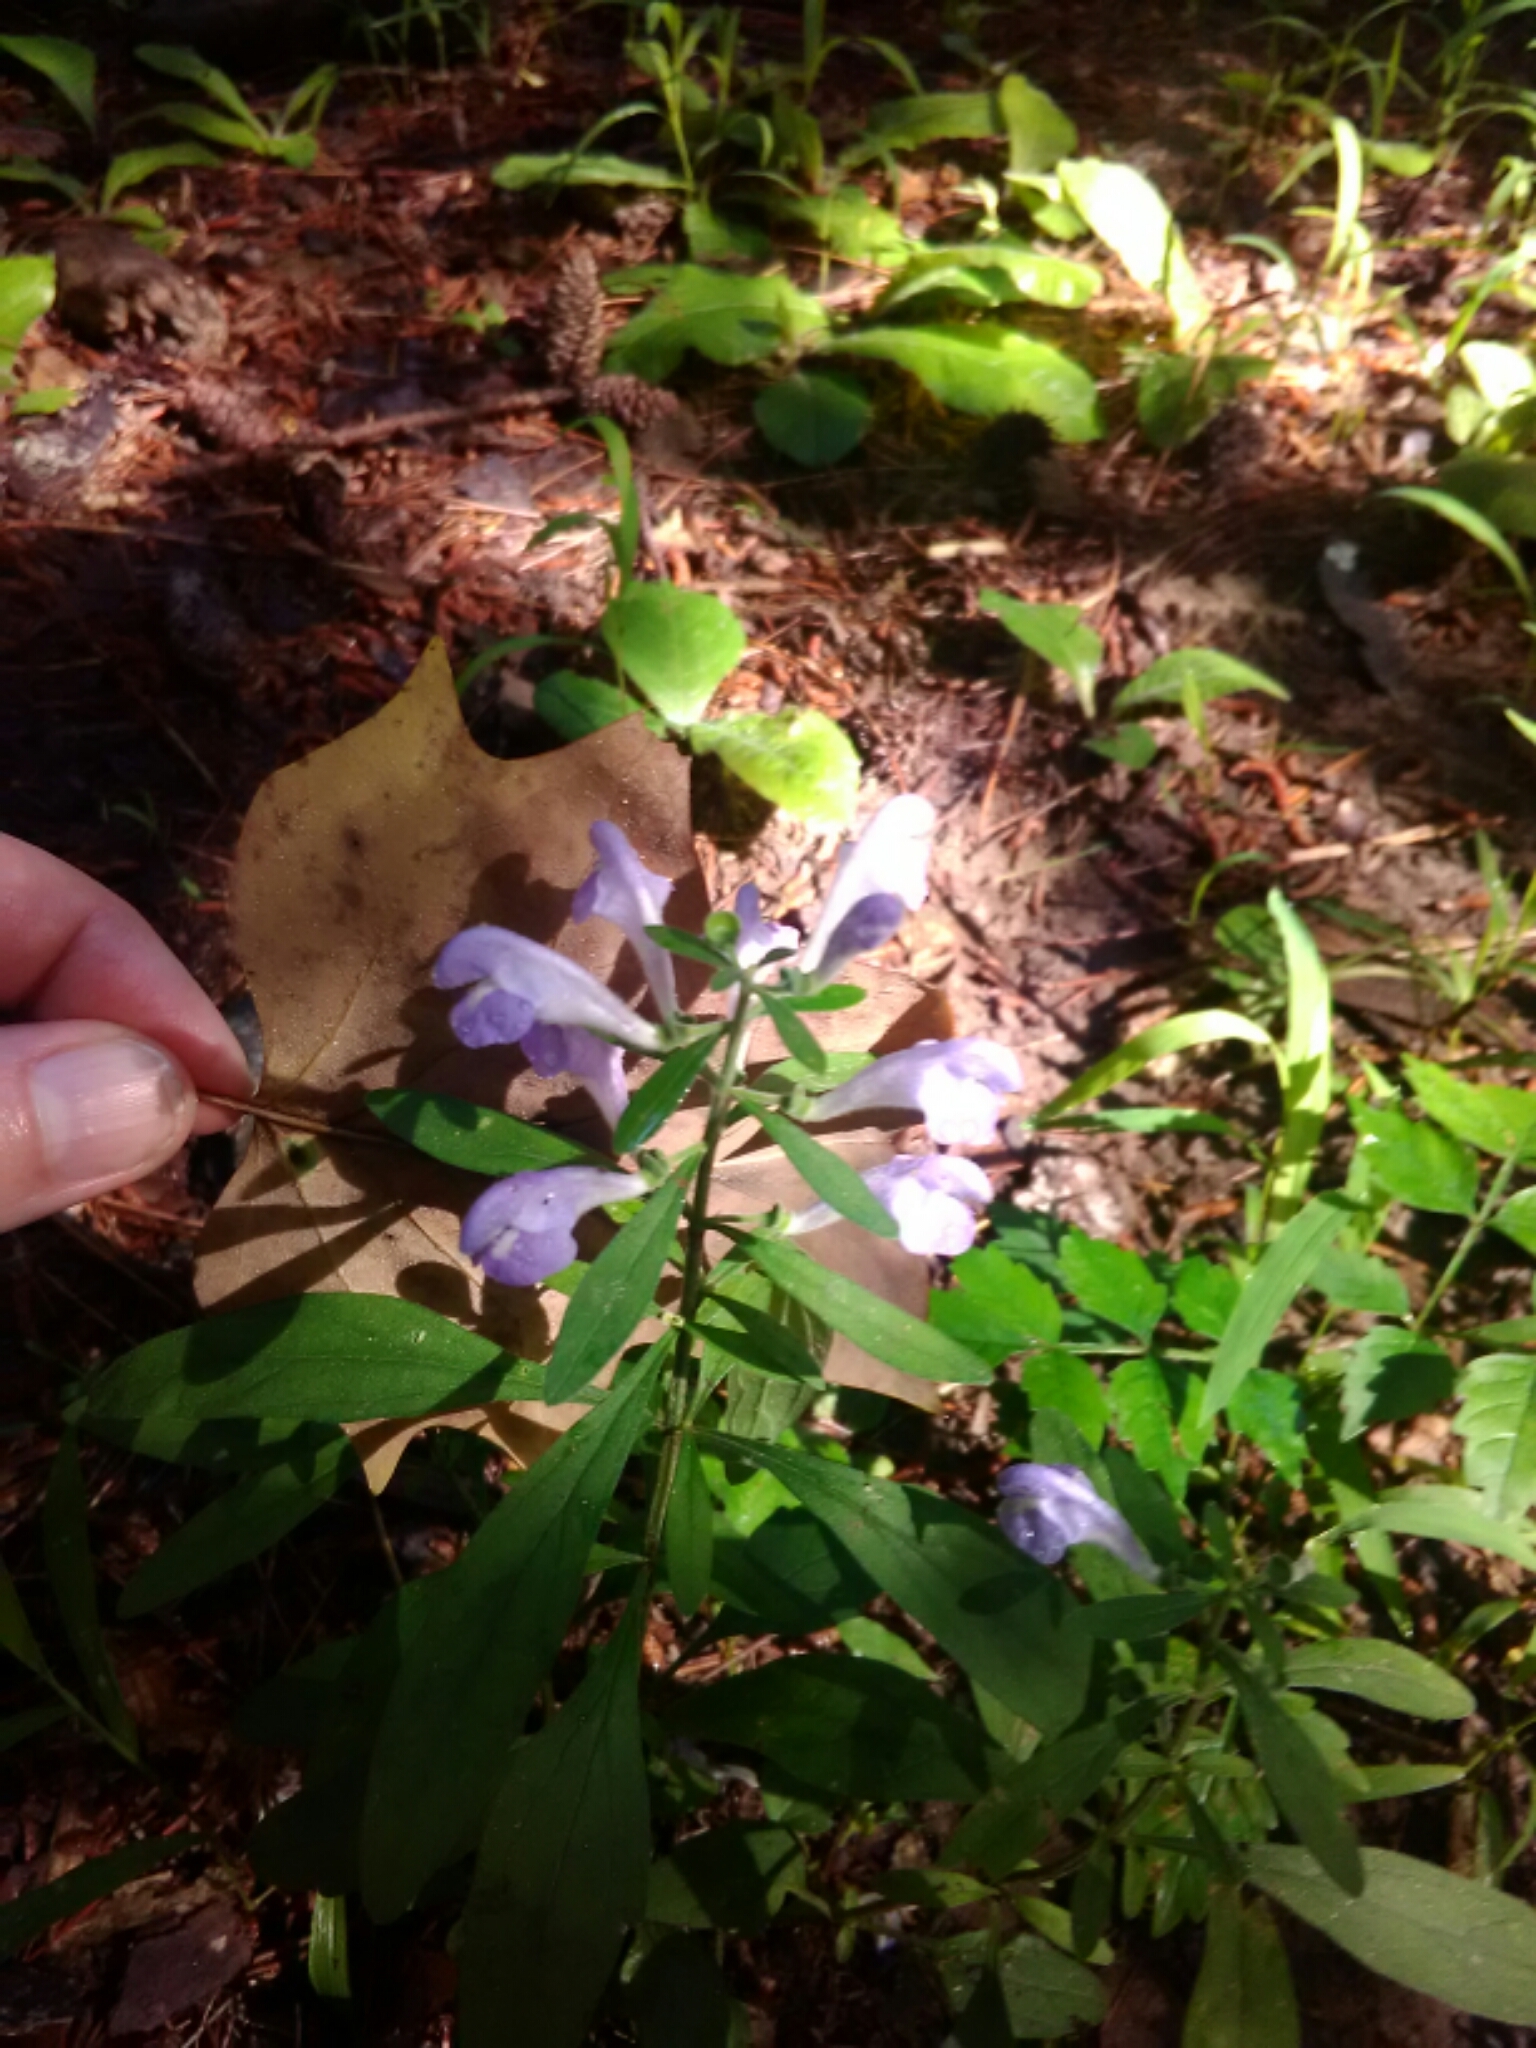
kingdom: Plantae
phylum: Tracheophyta
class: Magnoliopsida
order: Lamiales
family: Lamiaceae
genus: Scutellaria
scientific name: Scutellaria integrifolia
